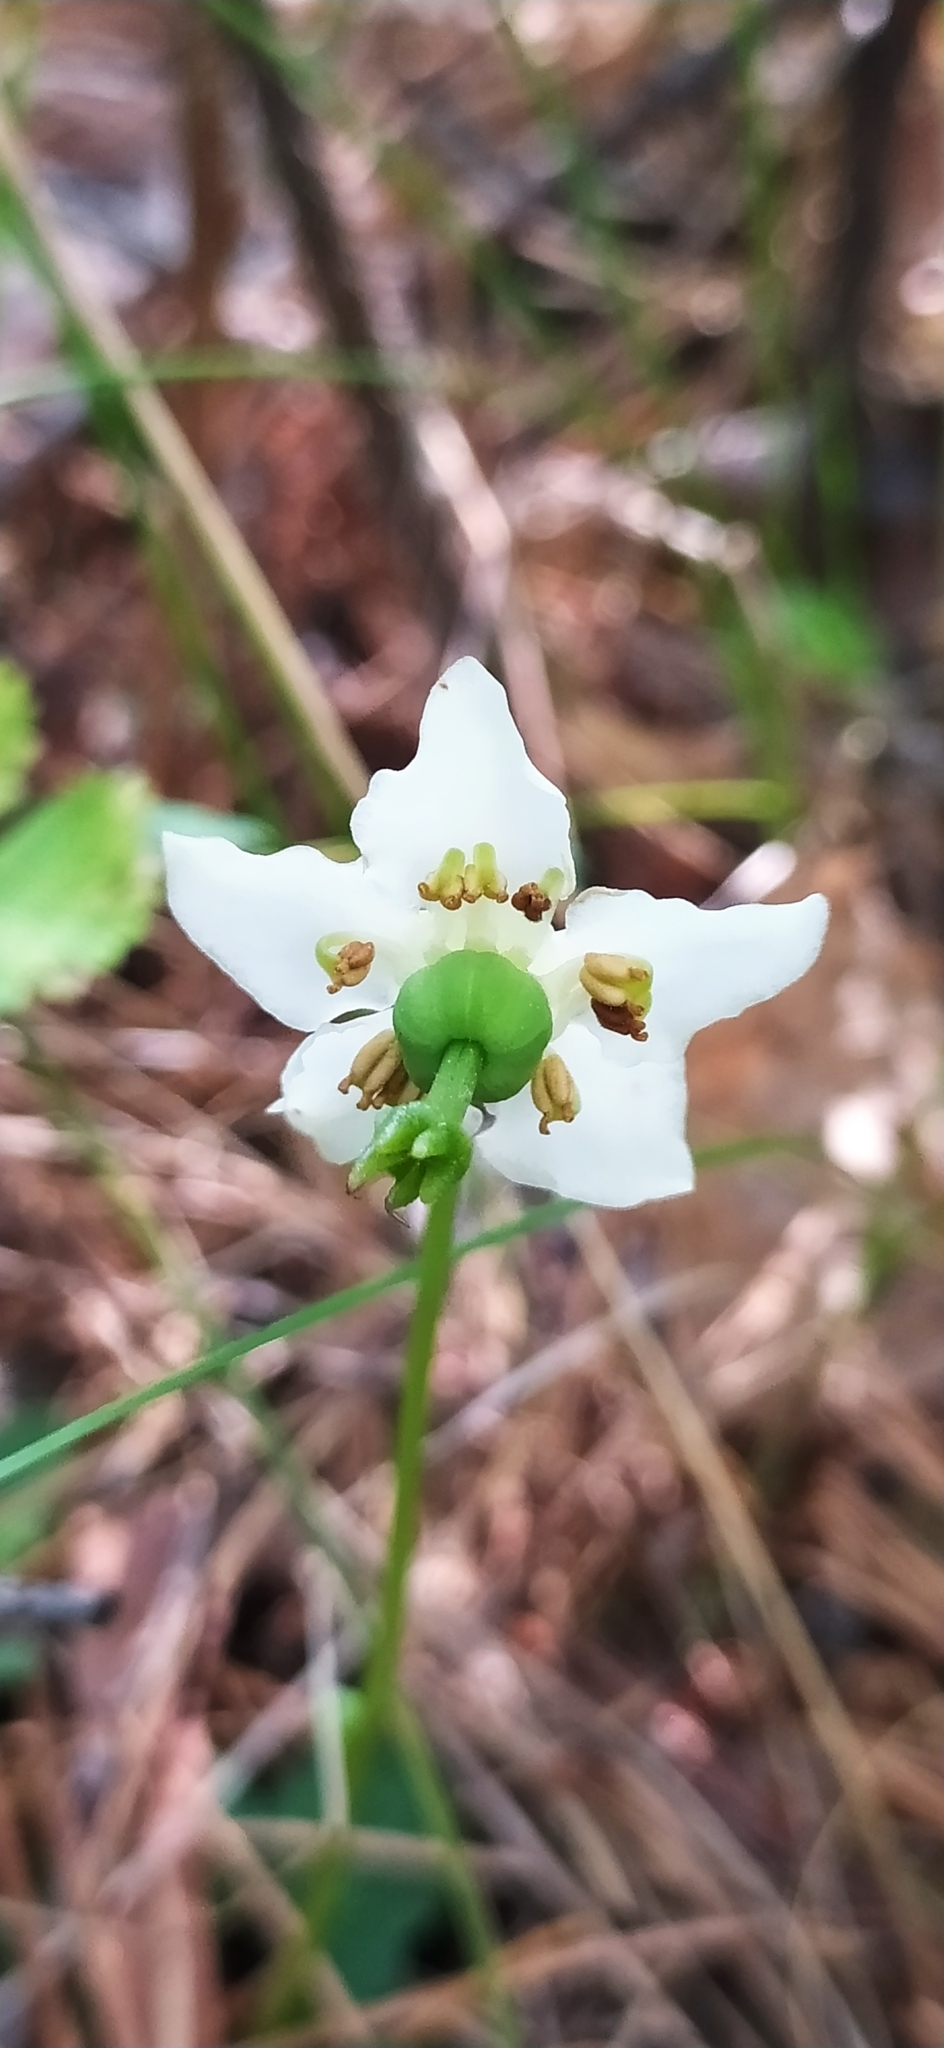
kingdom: Plantae
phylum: Tracheophyta
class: Magnoliopsida
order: Ericales
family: Ericaceae
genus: Moneses
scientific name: Moneses uniflora
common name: One-flowered wintergreen
